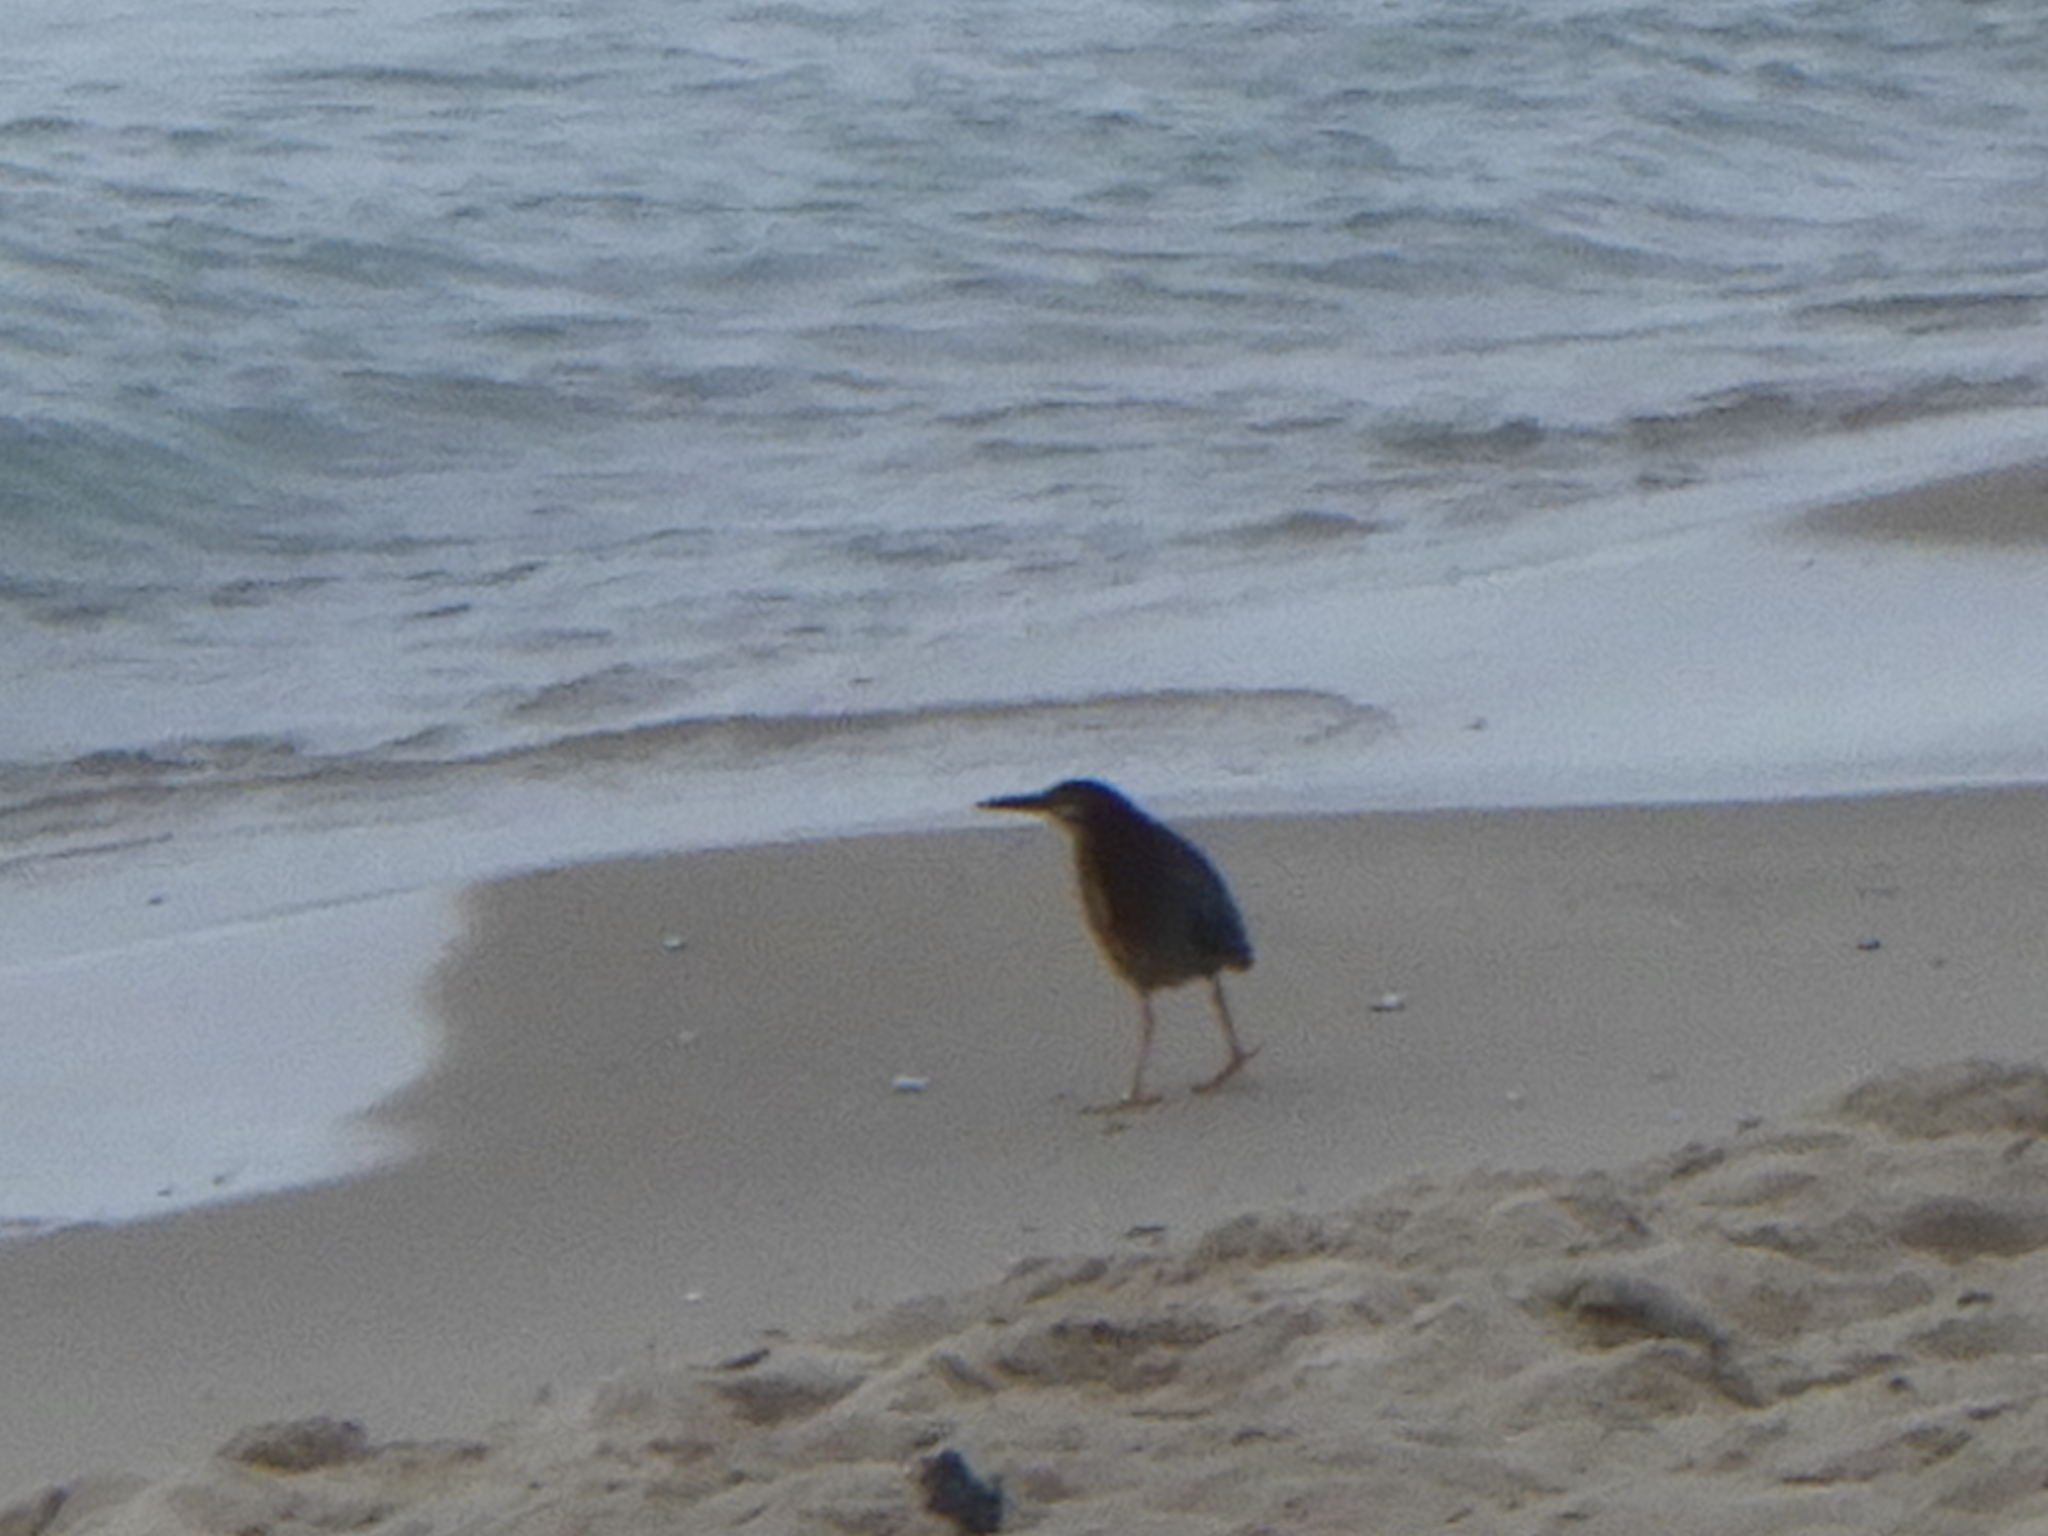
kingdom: Animalia
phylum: Chordata
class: Aves
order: Pelecaniformes
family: Ardeidae
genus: Butorides
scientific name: Butorides virescens
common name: Green heron
